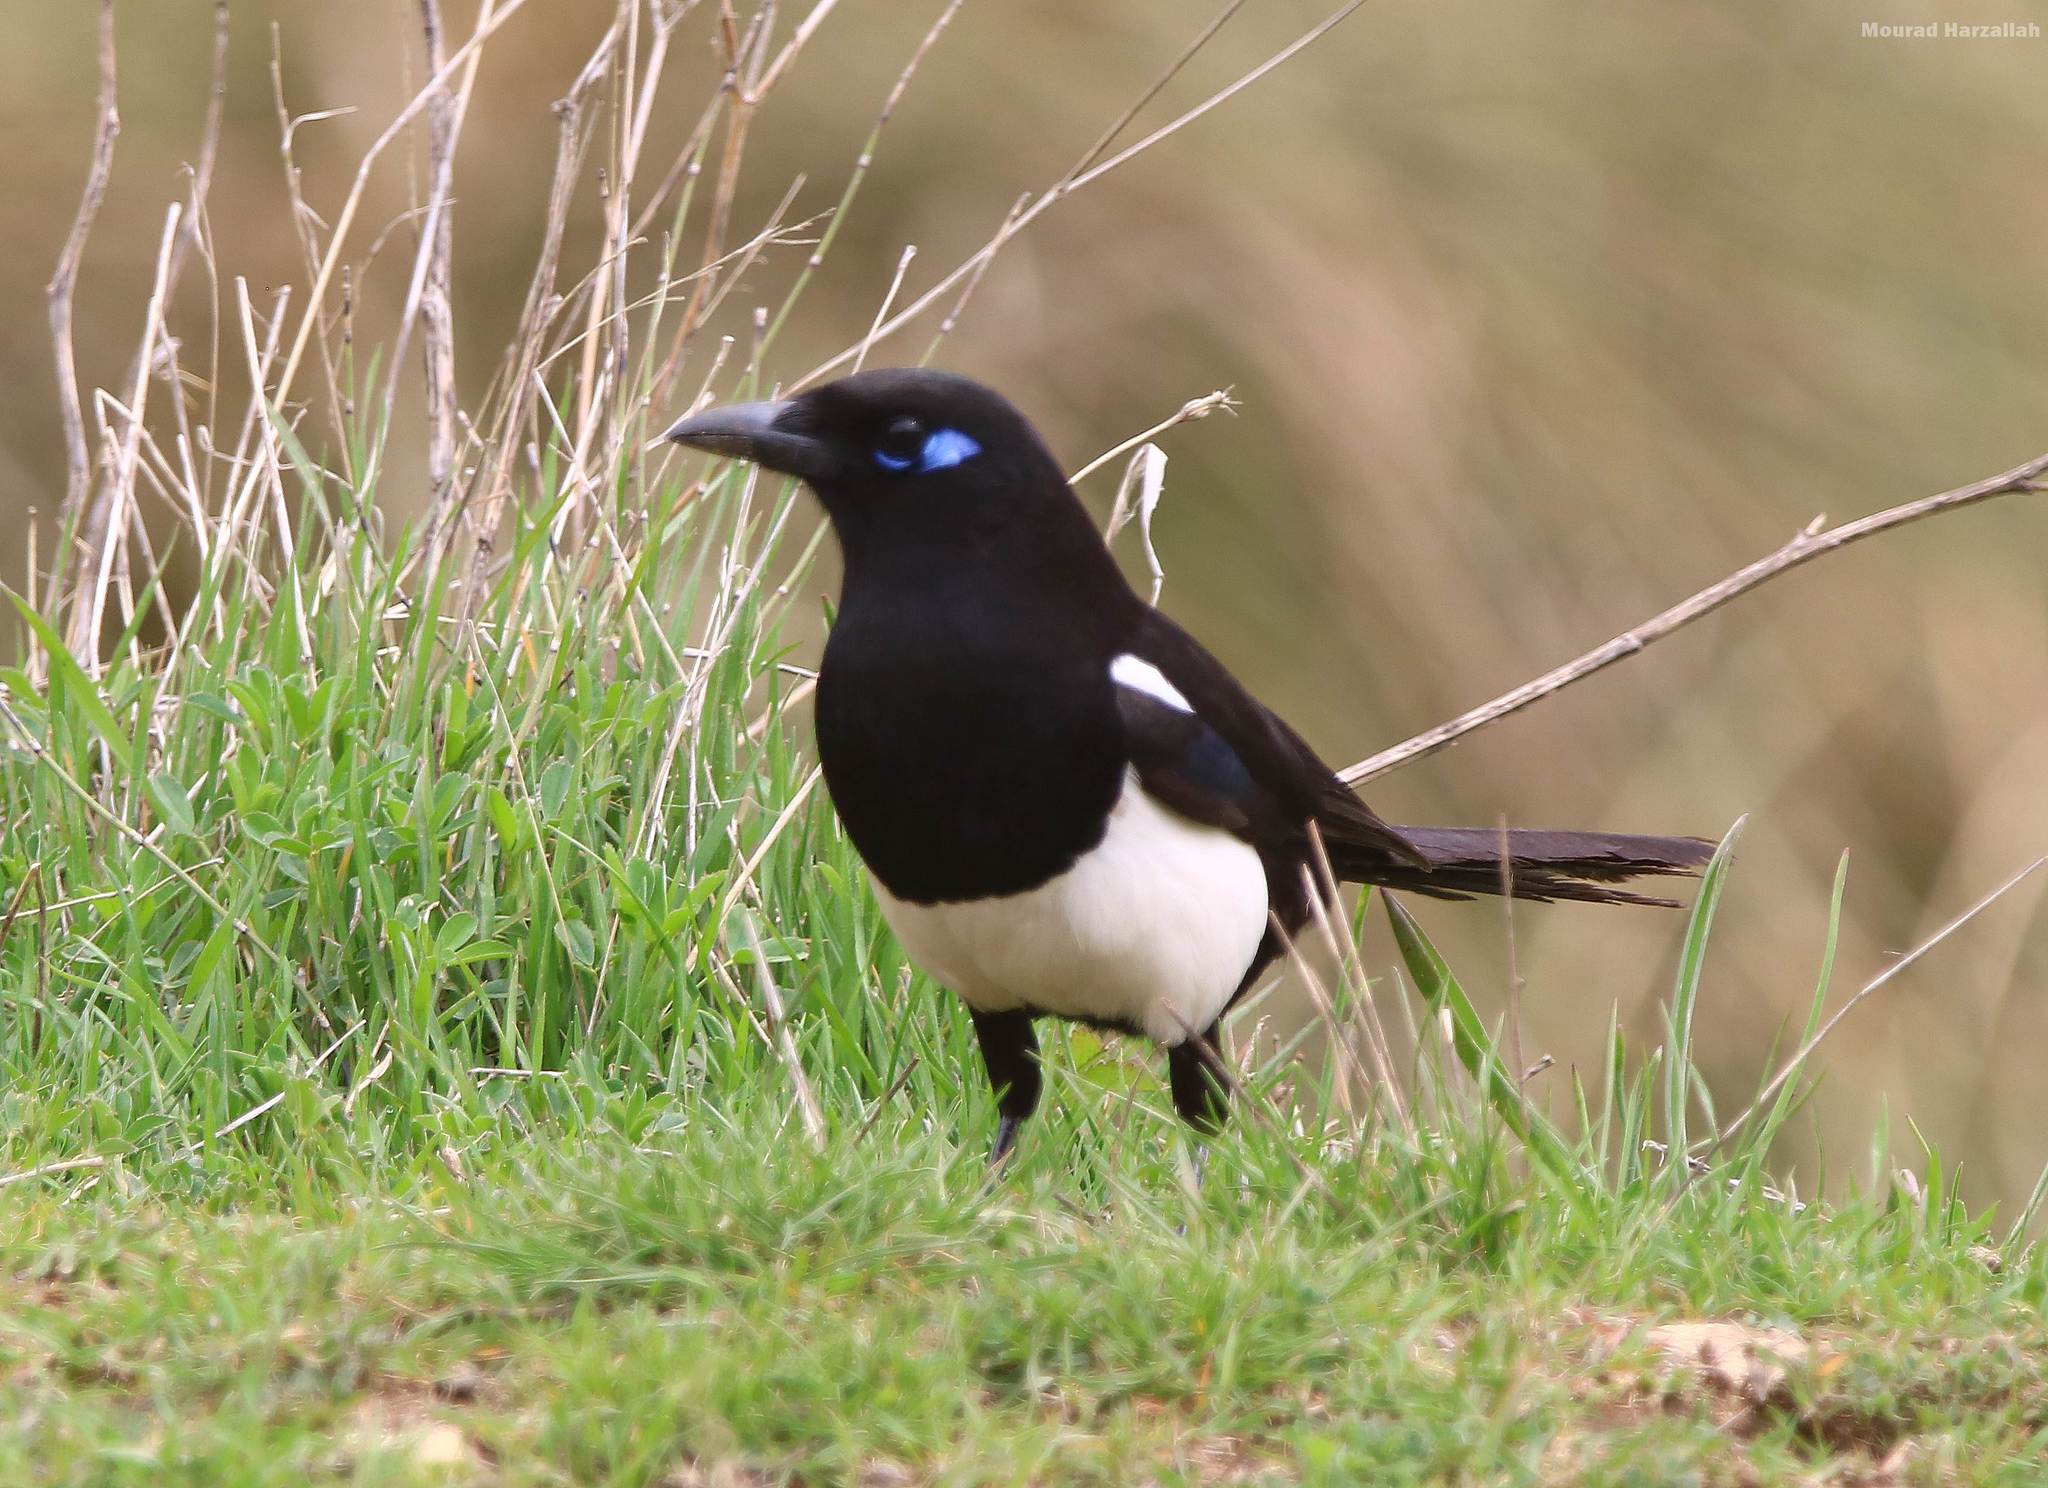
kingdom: Animalia
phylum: Chordata
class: Aves
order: Passeriformes
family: Corvidae
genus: Pica
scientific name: Pica mauritanica
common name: Maghreb magpie
